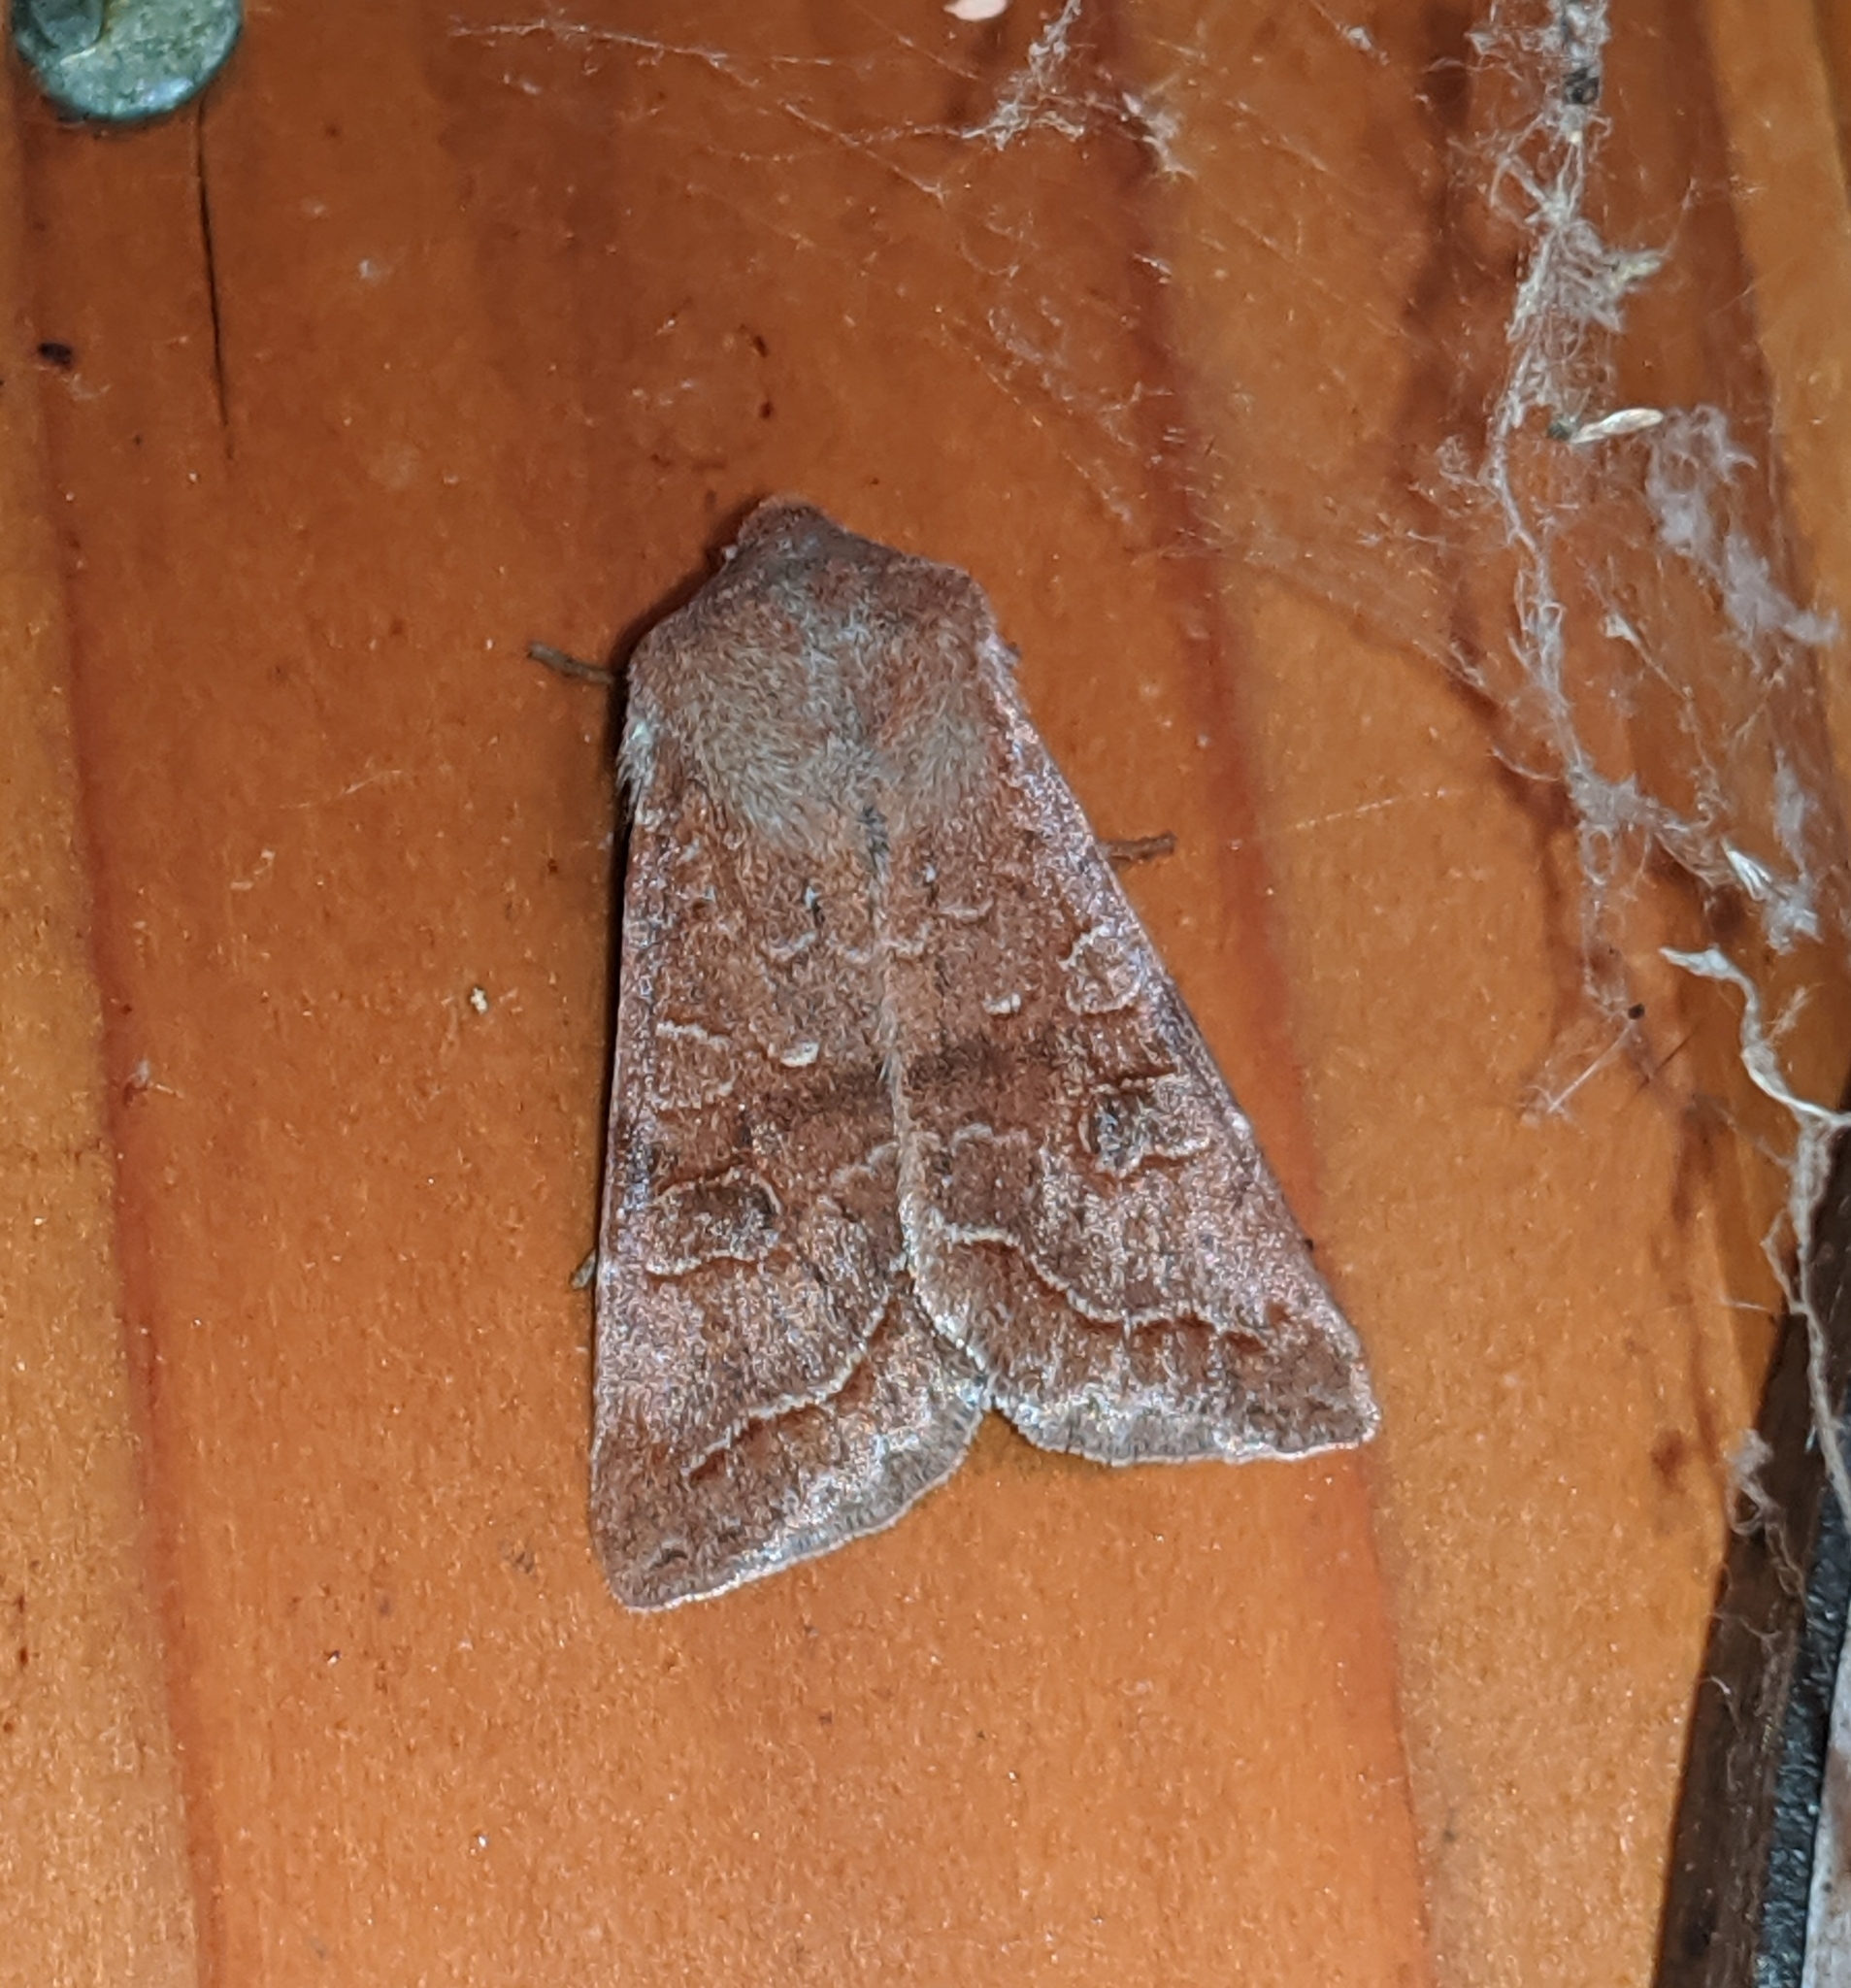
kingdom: Animalia
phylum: Arthropoda
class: Insecta
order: Lepidoptera
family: Noctuidae
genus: Orthosia
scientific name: Orthosia revicta
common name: Rusty whitesided caterpillar
